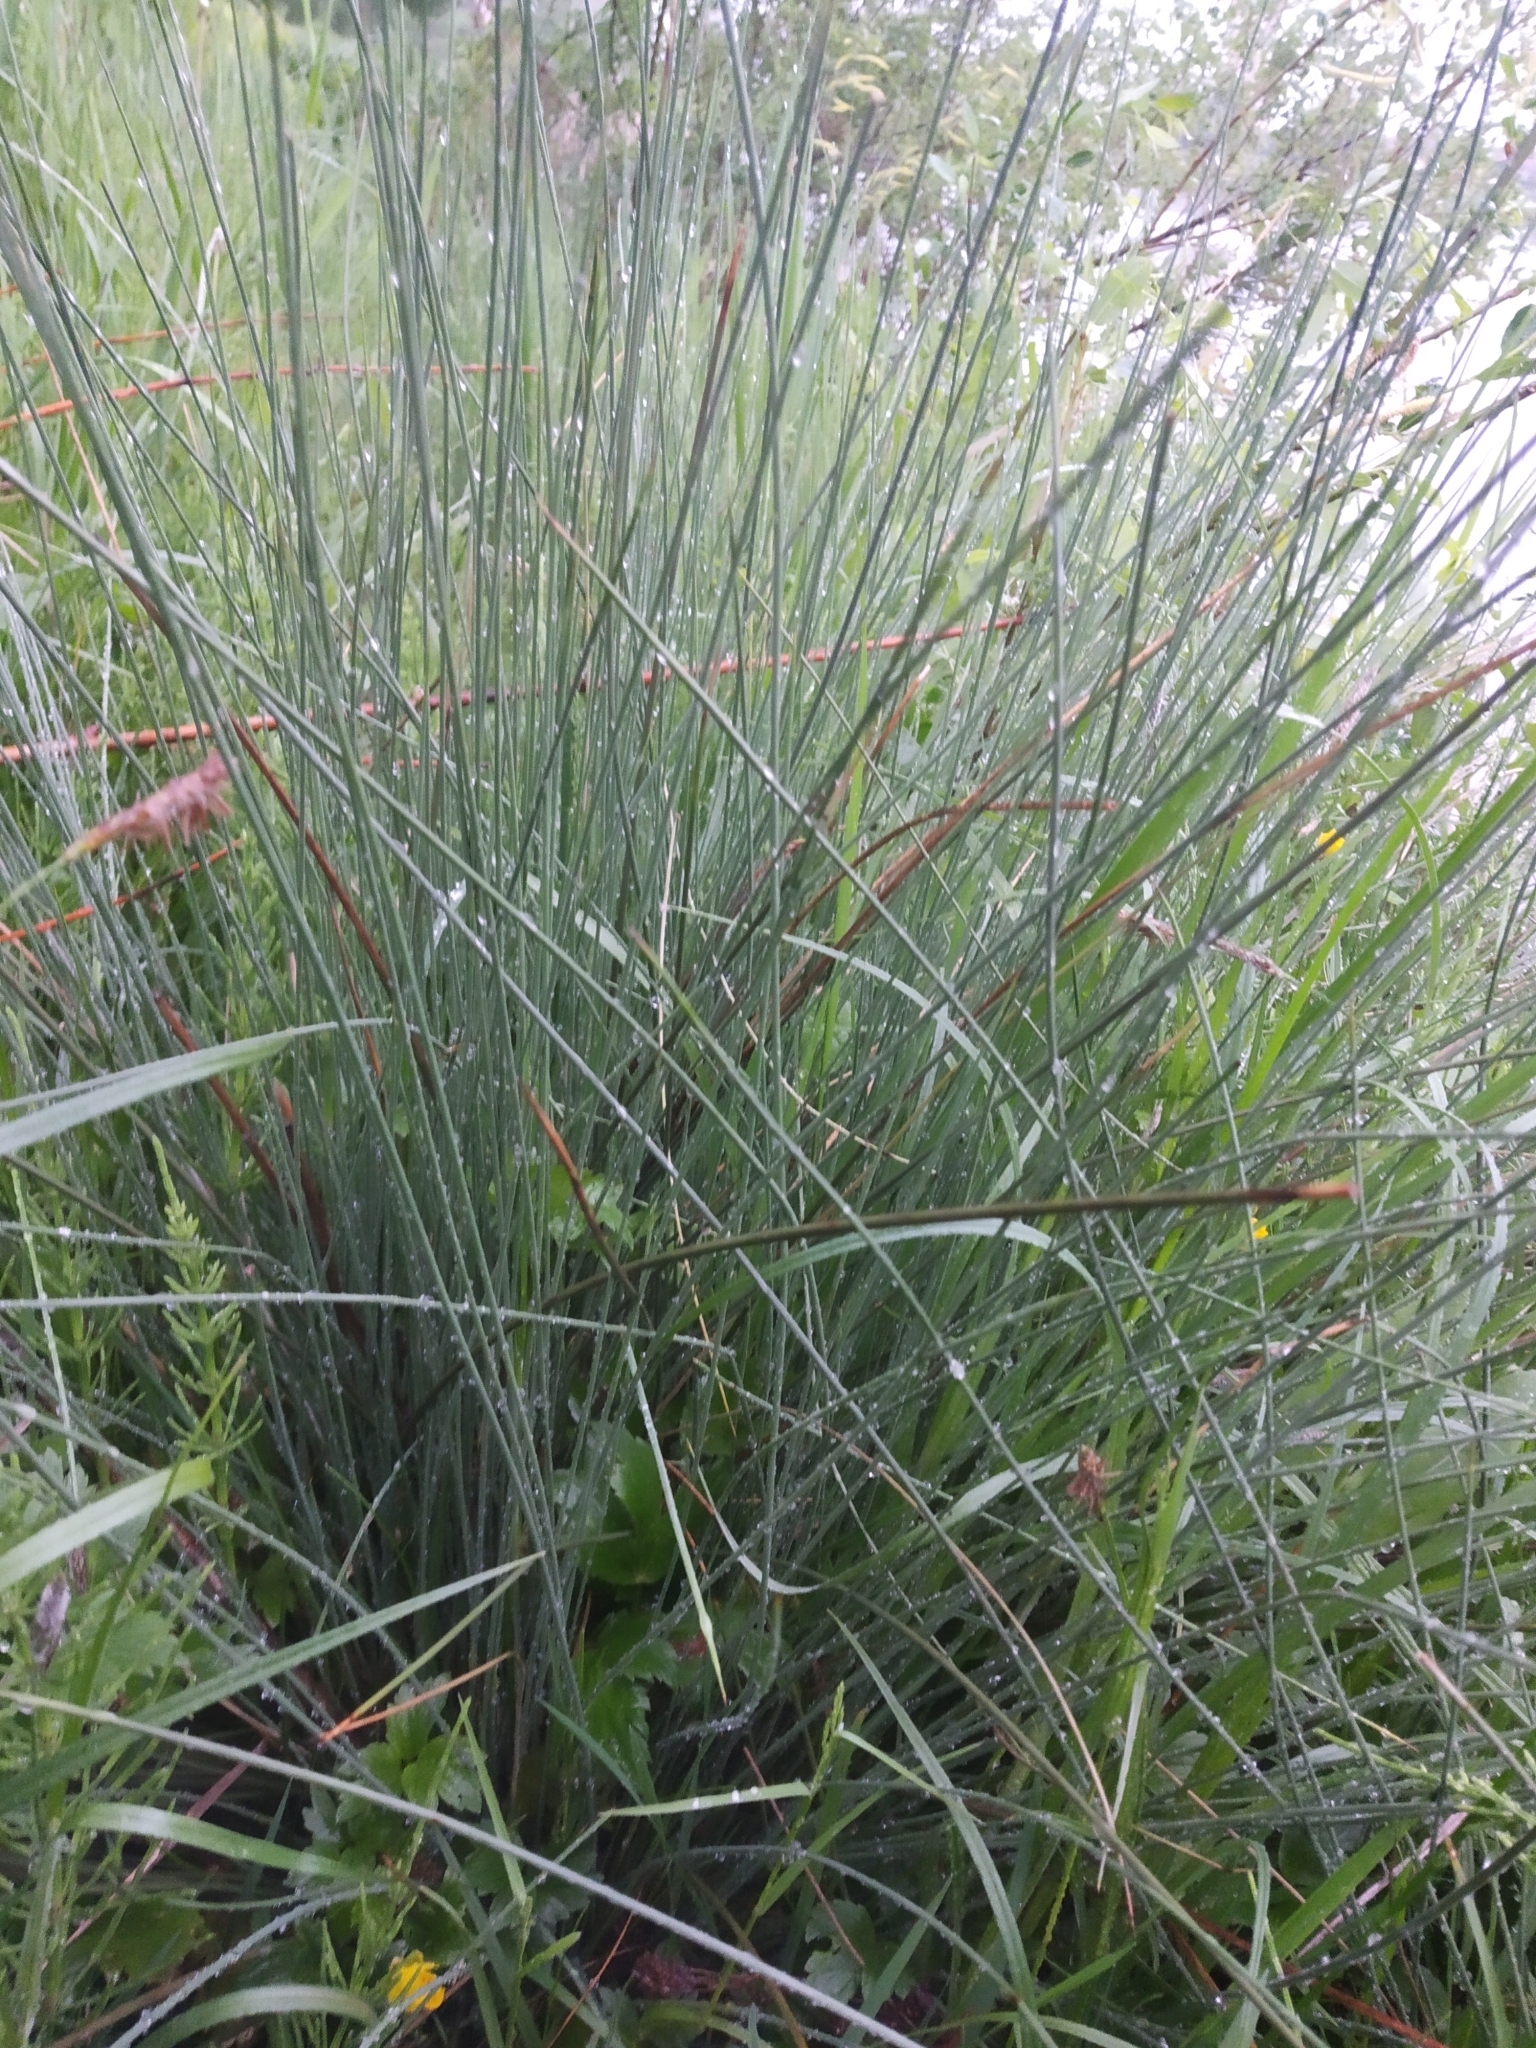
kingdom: Plantae
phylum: Tracheophyta
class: Liliopsida
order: Poales
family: Juncaceae
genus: Juncus
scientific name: Juncus effusus
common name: Soft rush
